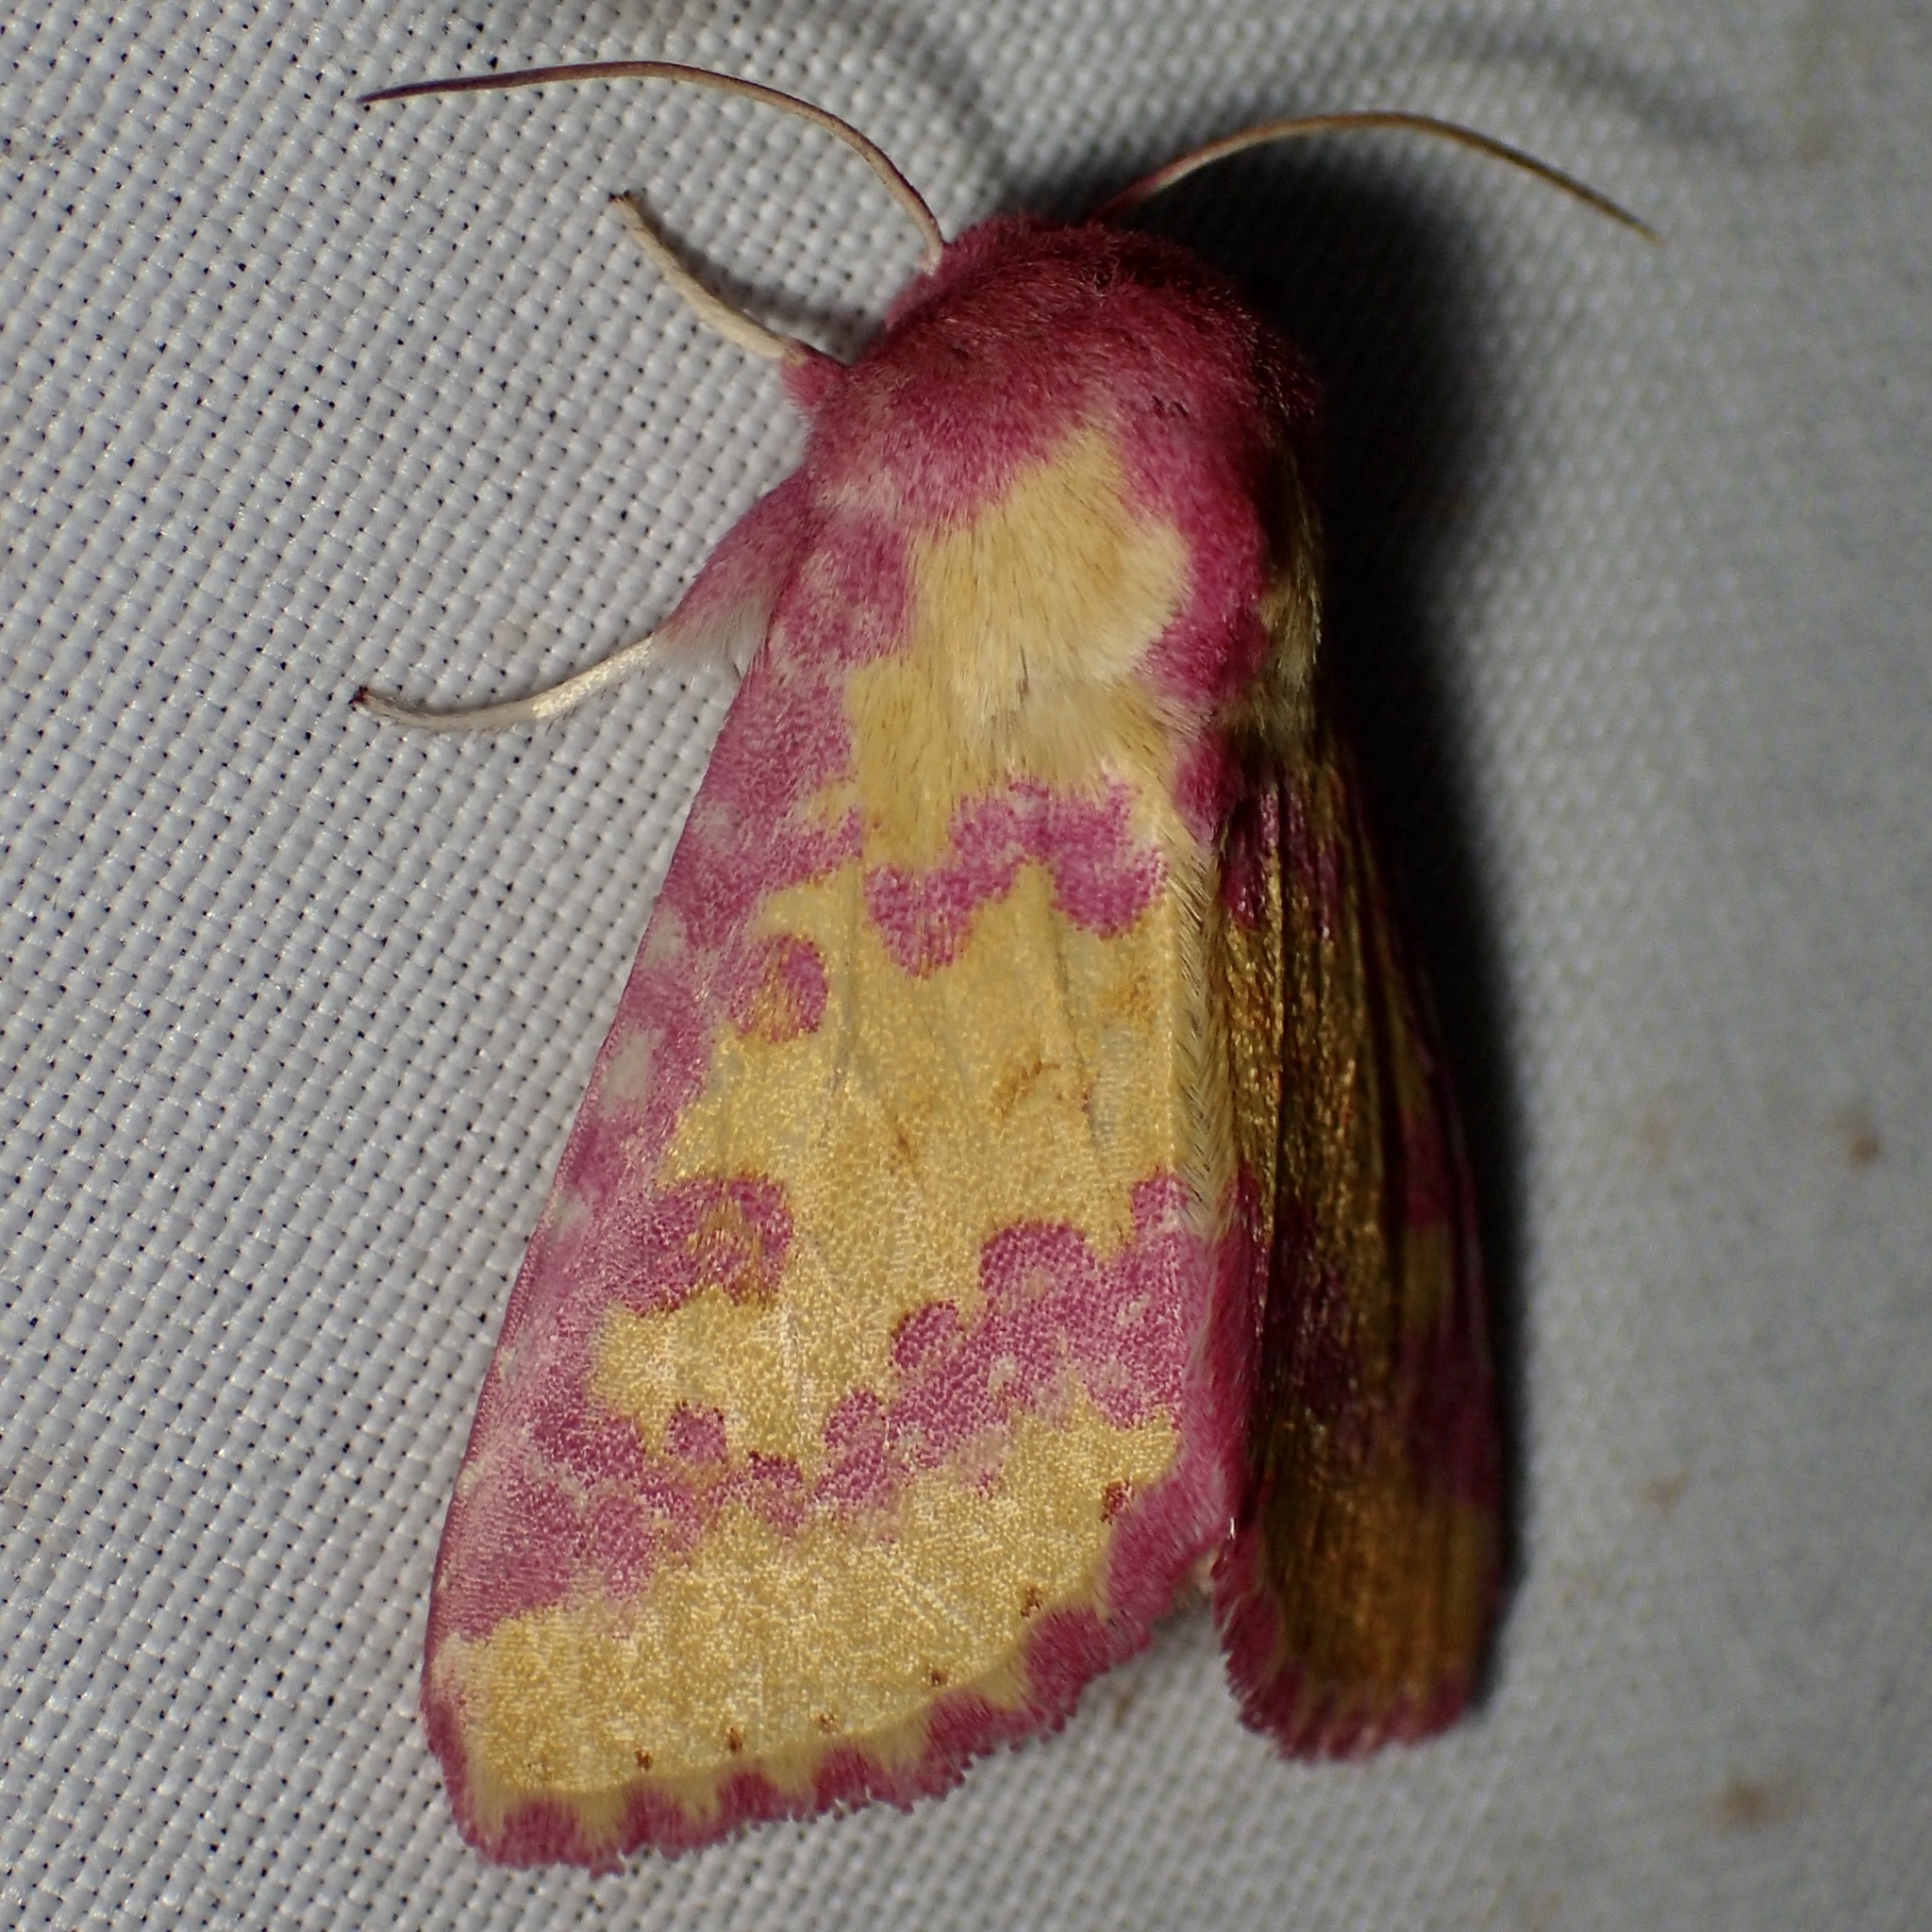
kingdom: Animalia
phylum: Arthropoda
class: Insecta
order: Lepidoptera
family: Noctuidae
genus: Psectrotarsia
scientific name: Psectrotarsia suavis
